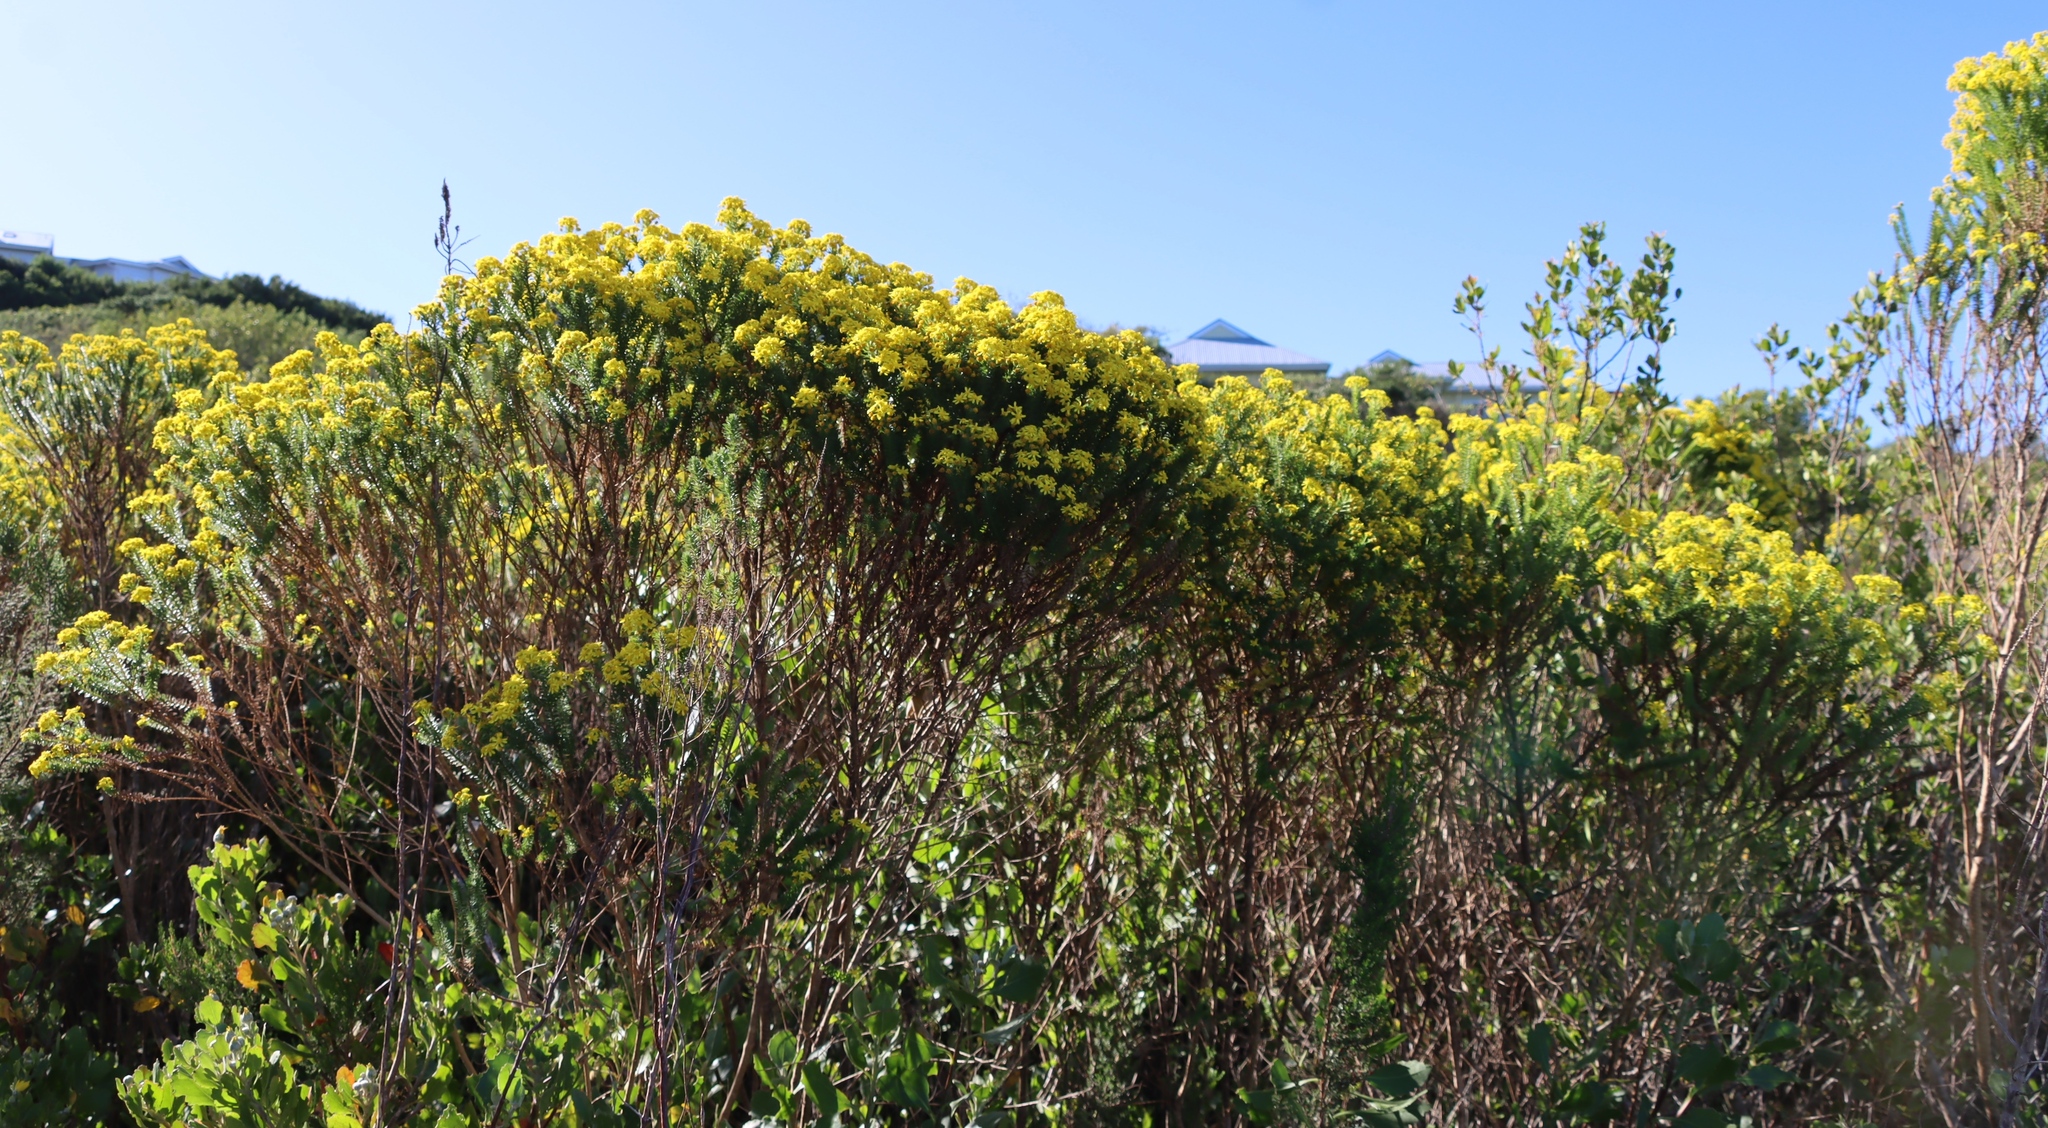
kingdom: Plantae
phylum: Tracheophyta
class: Magnoliopsida
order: Asterales
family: Asteraceae
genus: Euryops
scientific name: Euryops virgineus
